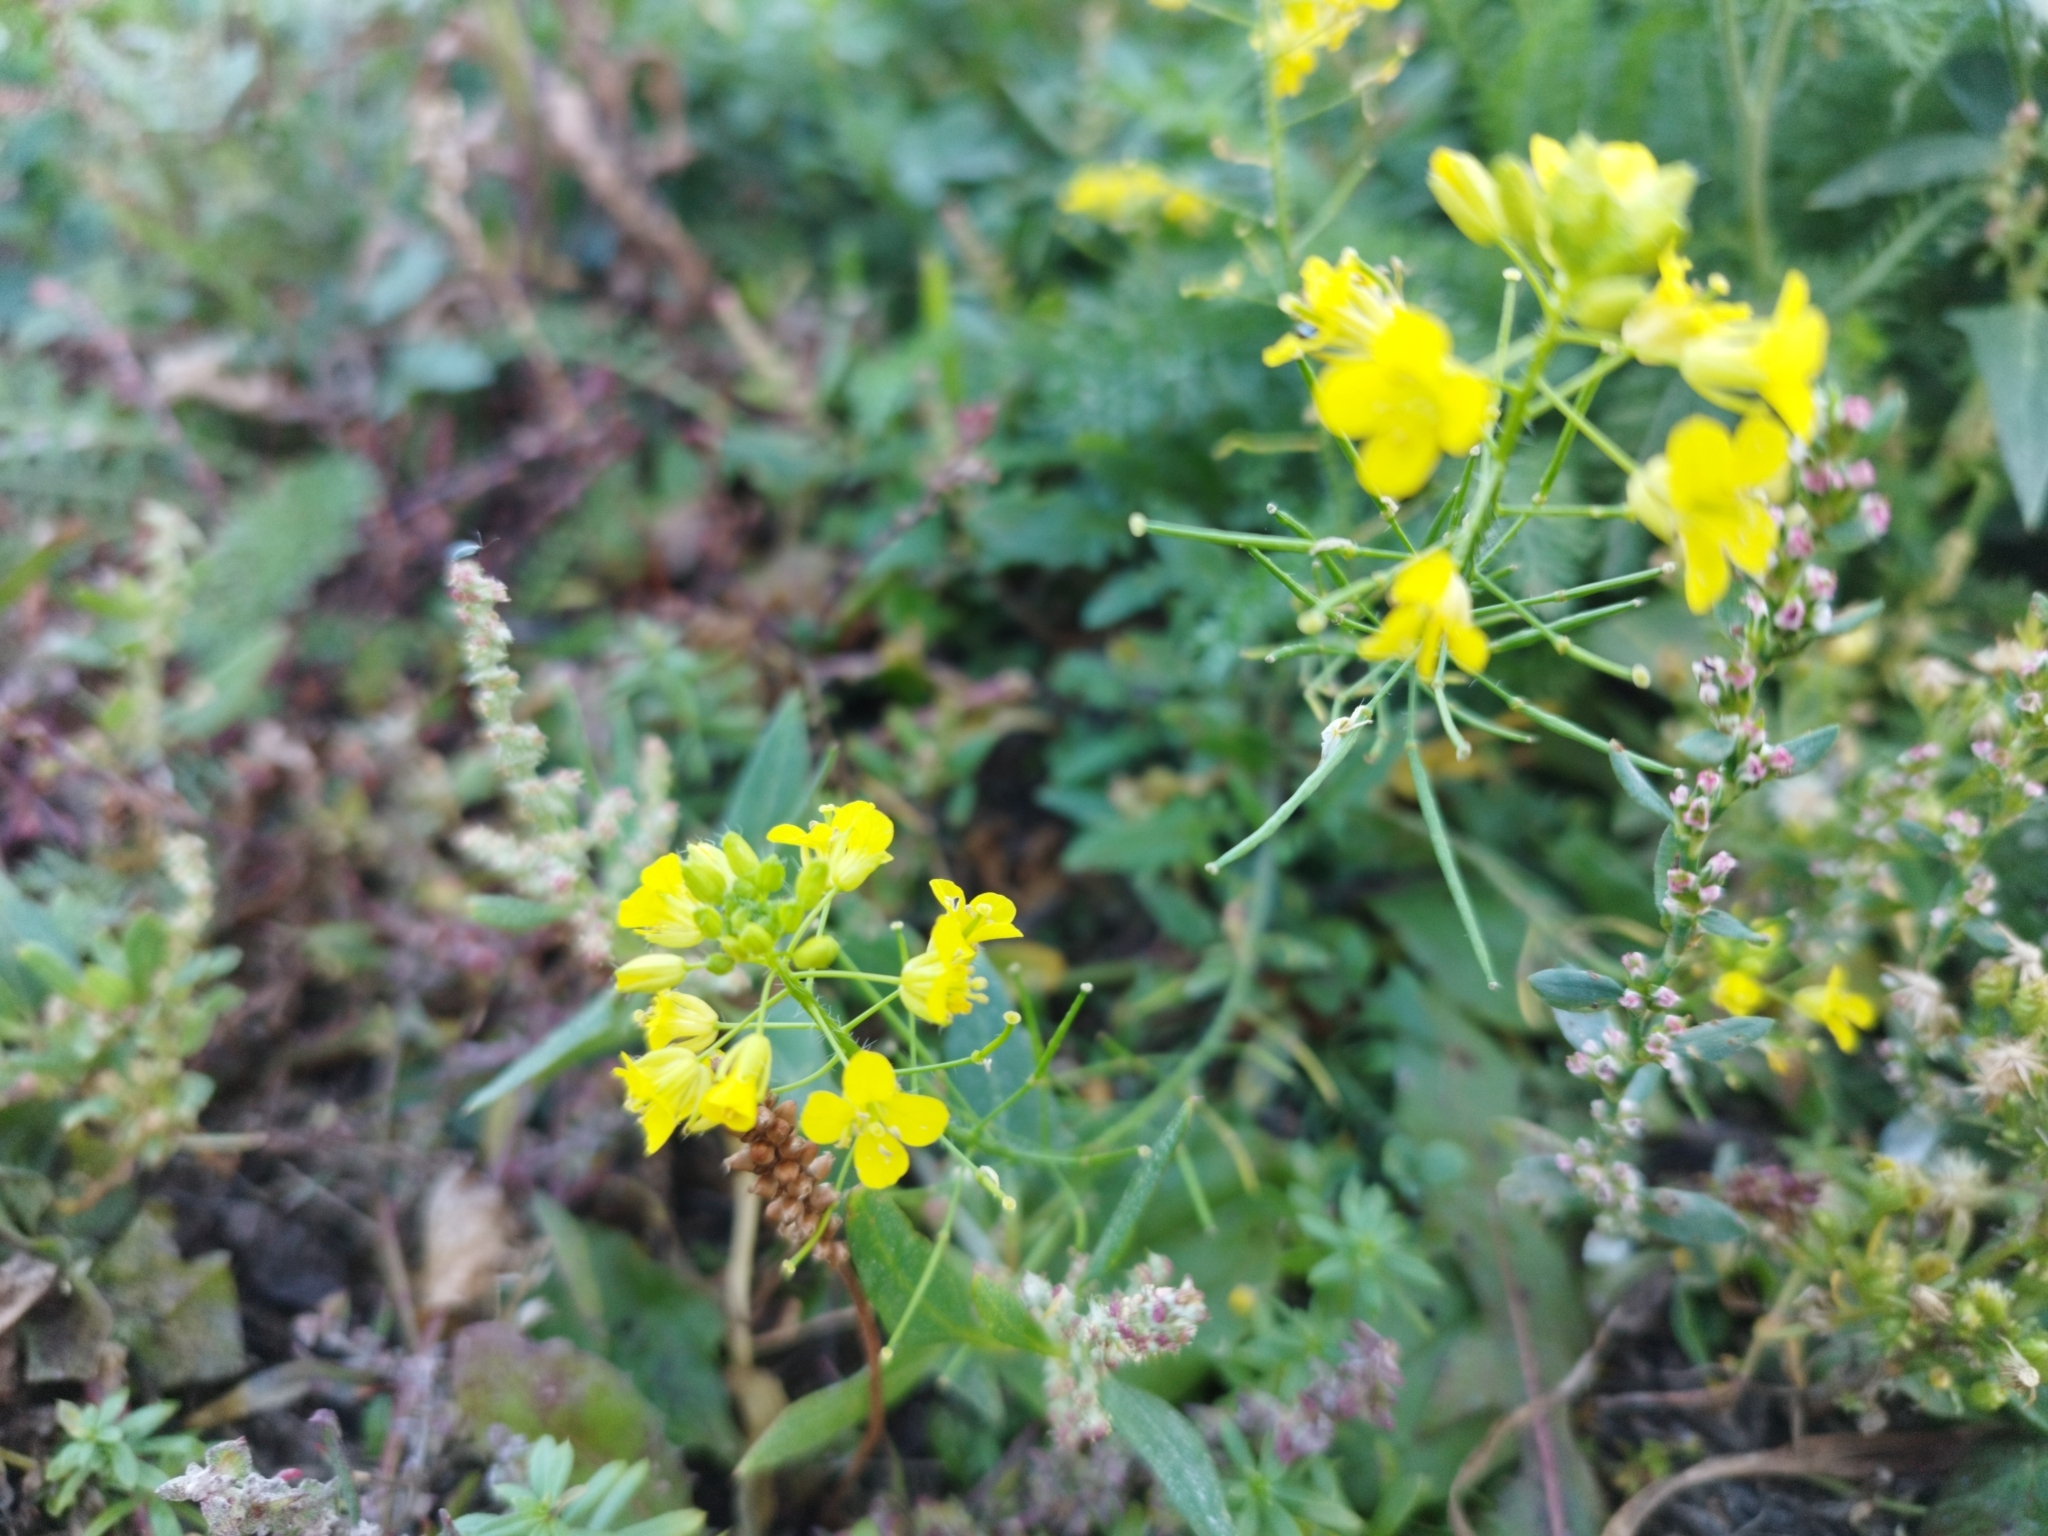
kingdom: Plantae
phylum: Tracheophyta
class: Magnoliopsida
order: Brassicales
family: Brassicaceae
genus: Erysimum
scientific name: Erysimum cheiranthoides
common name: Treacle mustard
